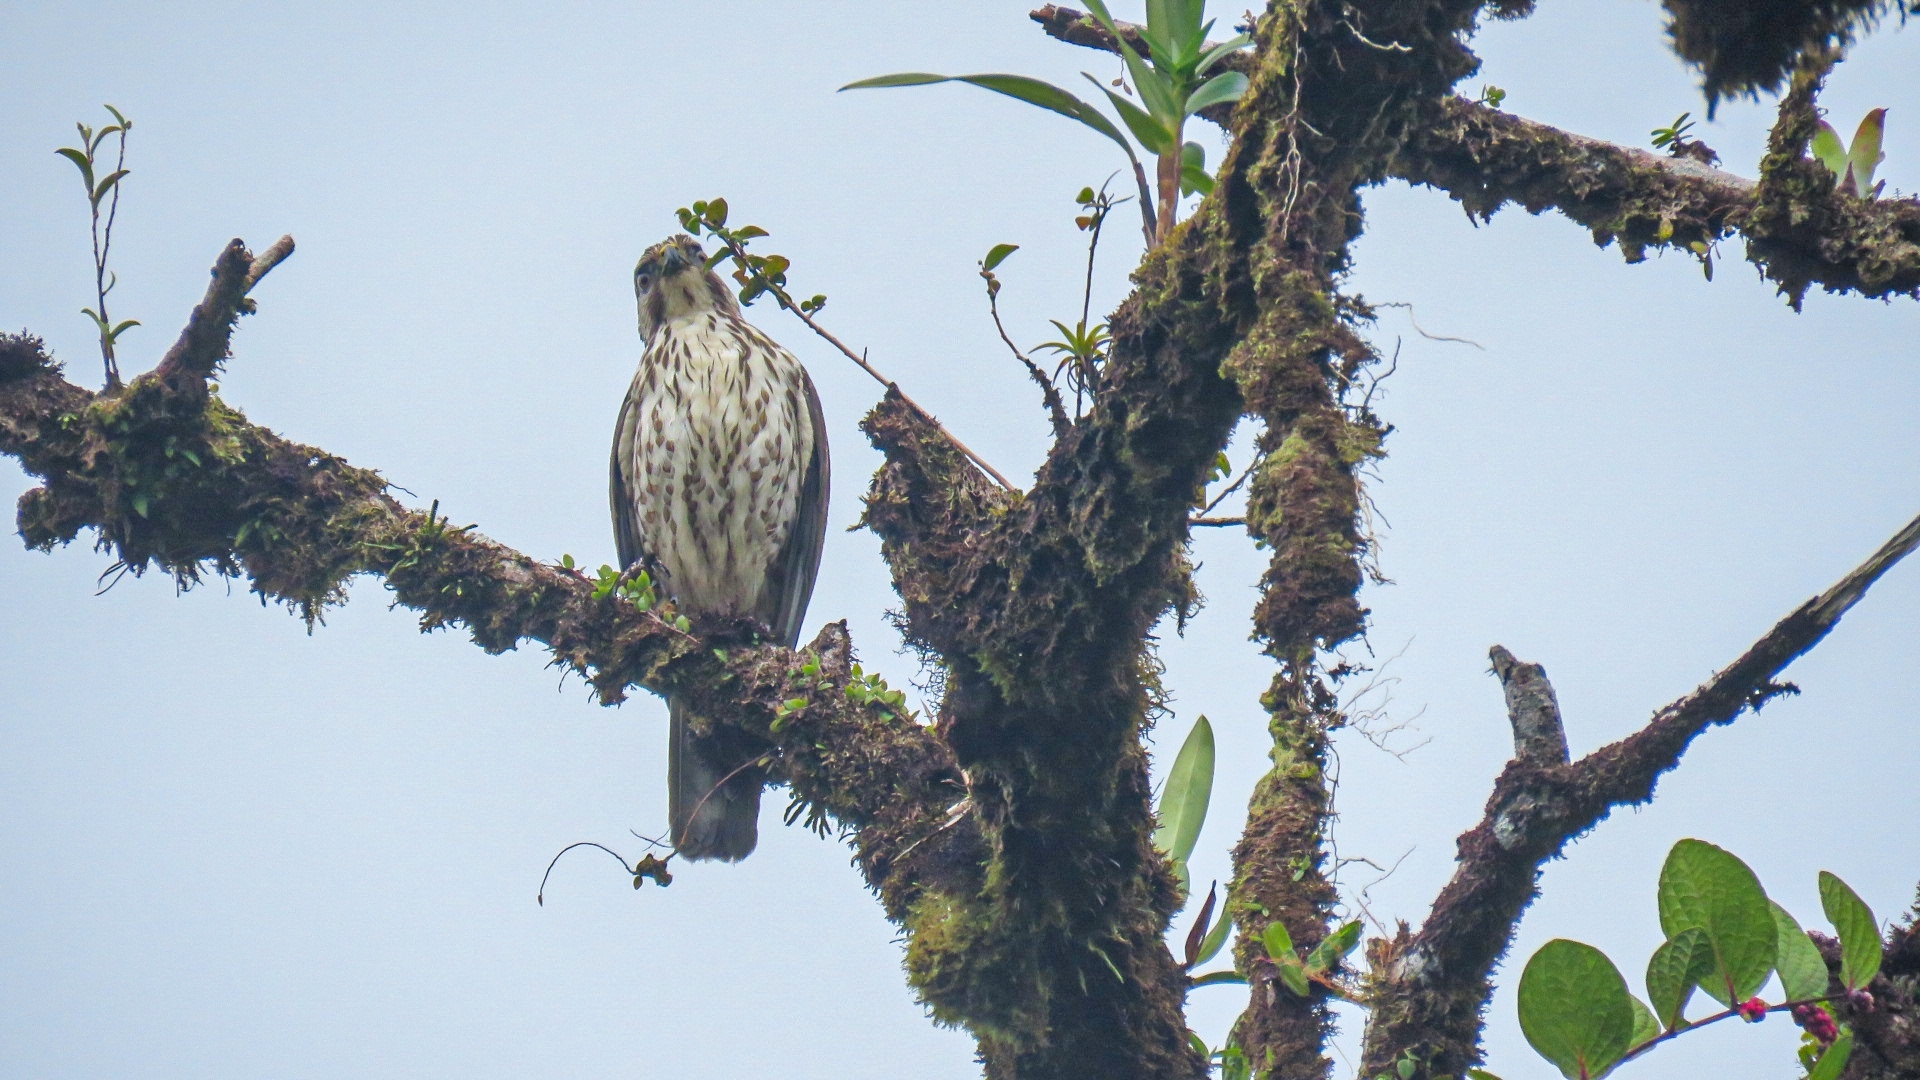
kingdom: Animalia
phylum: Chordata
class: Aves
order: Accipitriformes
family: Accipitridae
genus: Buteo
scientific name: Buteo platypterus
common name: Broad-winged hawk
